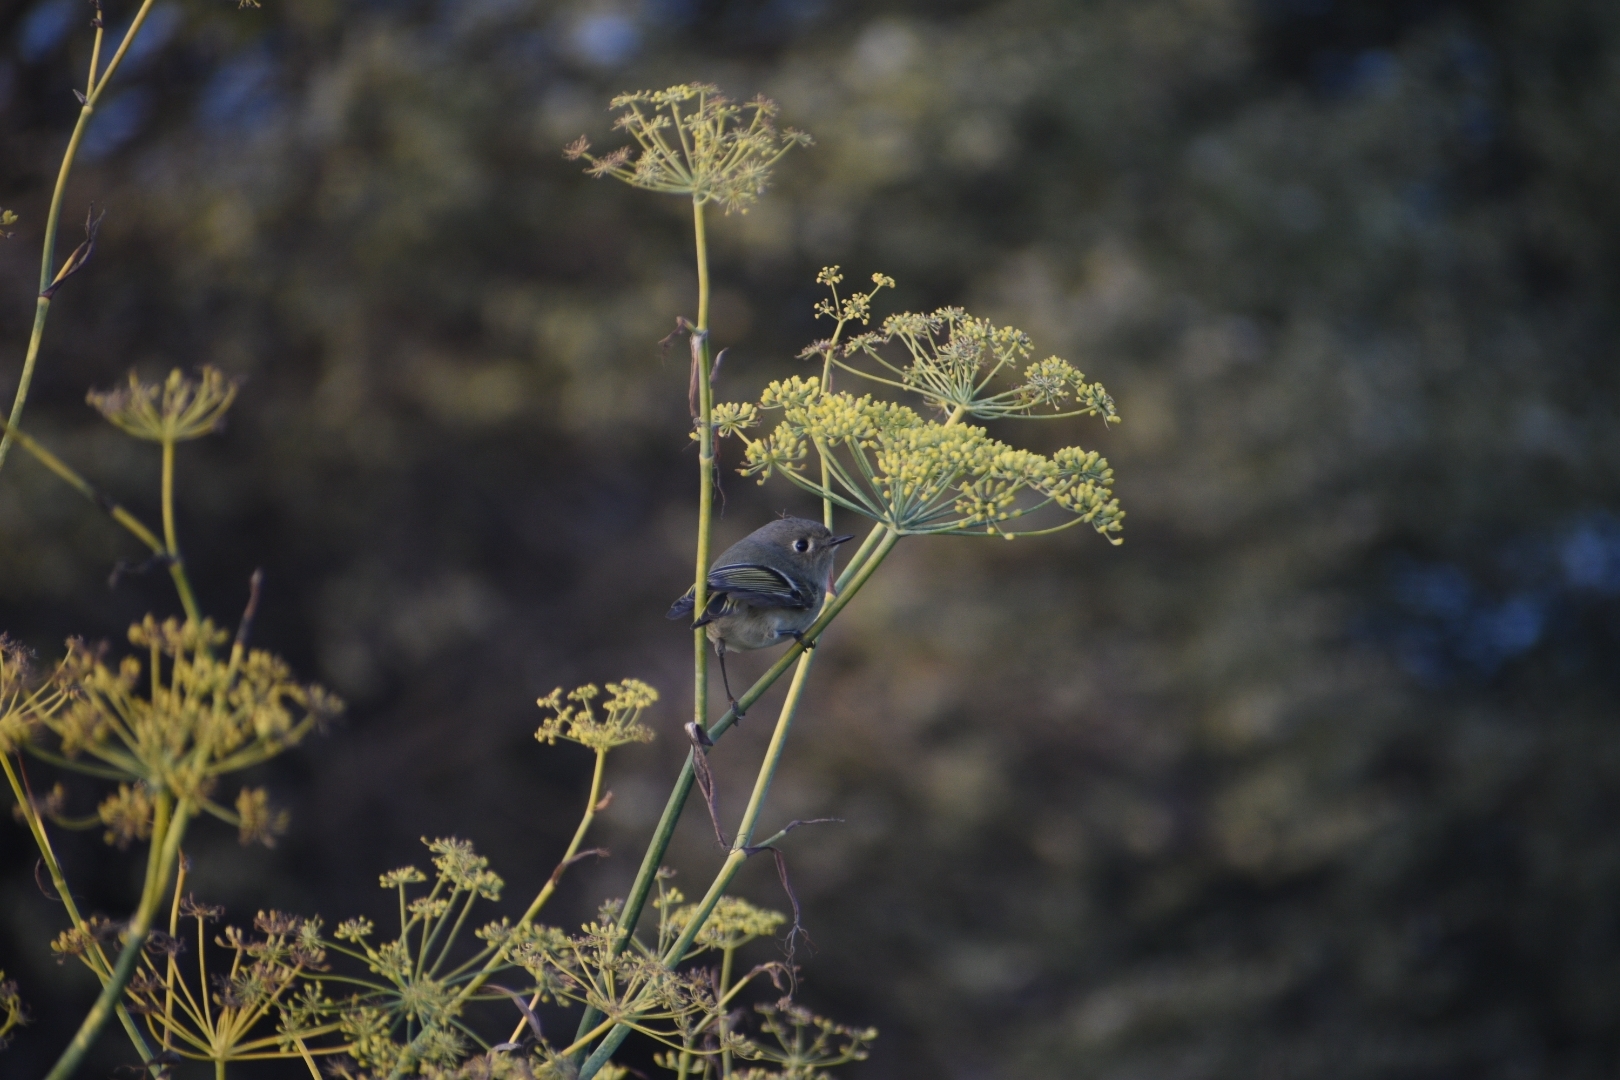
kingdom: Animalia
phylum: Chordata
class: Aves
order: Passeriformes
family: Regulidae
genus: Regulus
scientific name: Regulus calendula
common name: Ruby-crowned kinglet
